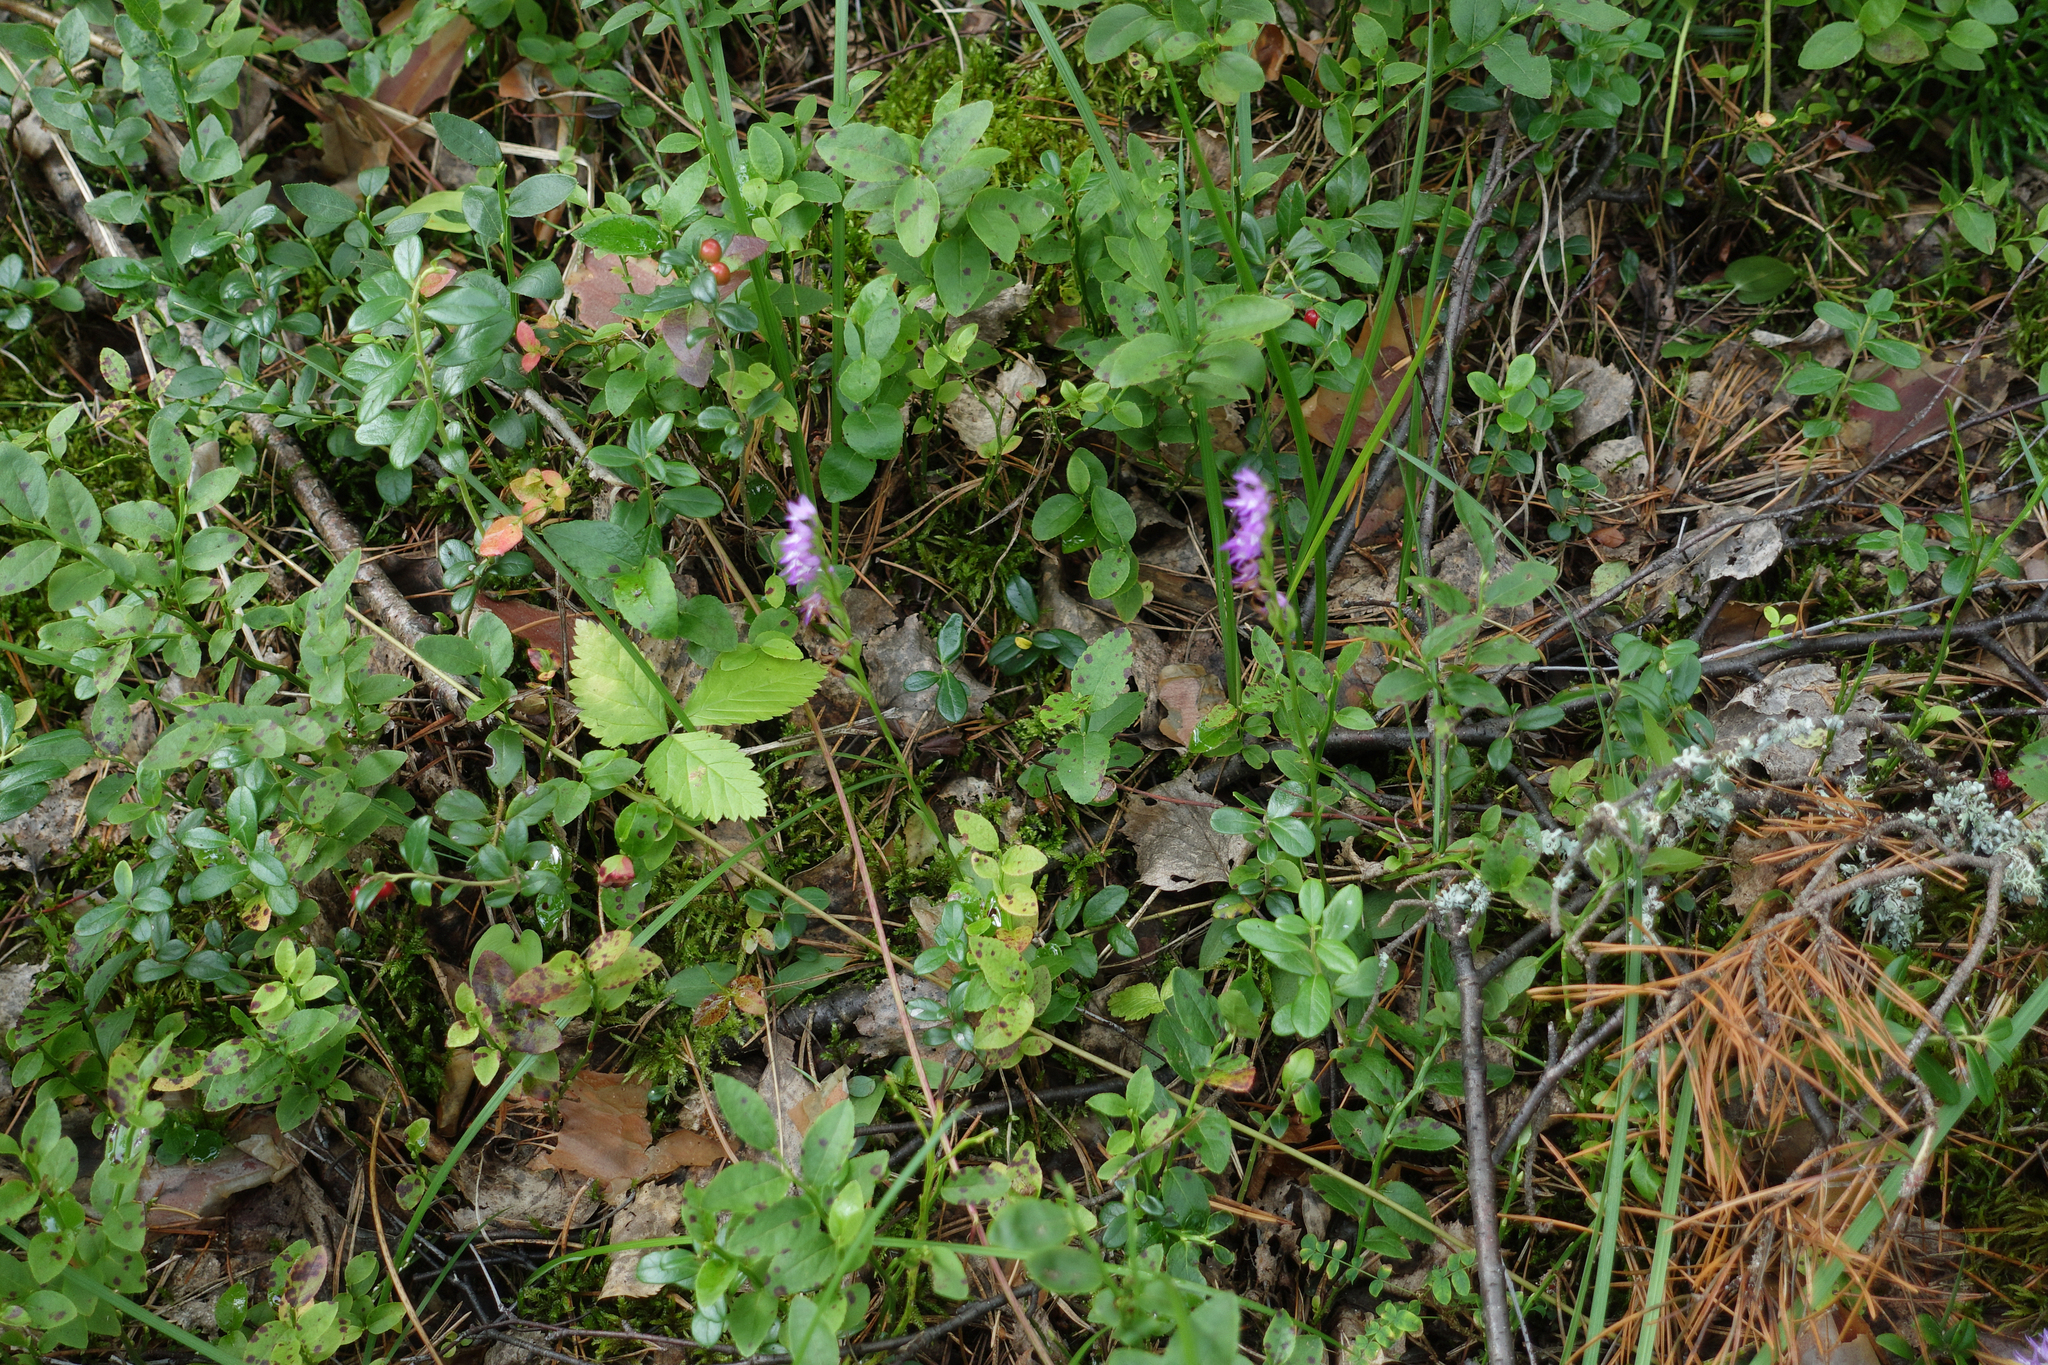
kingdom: Plantae
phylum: Tracheophyta
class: Liliopsida
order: Asparagales
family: Orchidaceae
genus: Hemipilia
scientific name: Hemipilia cucullata
